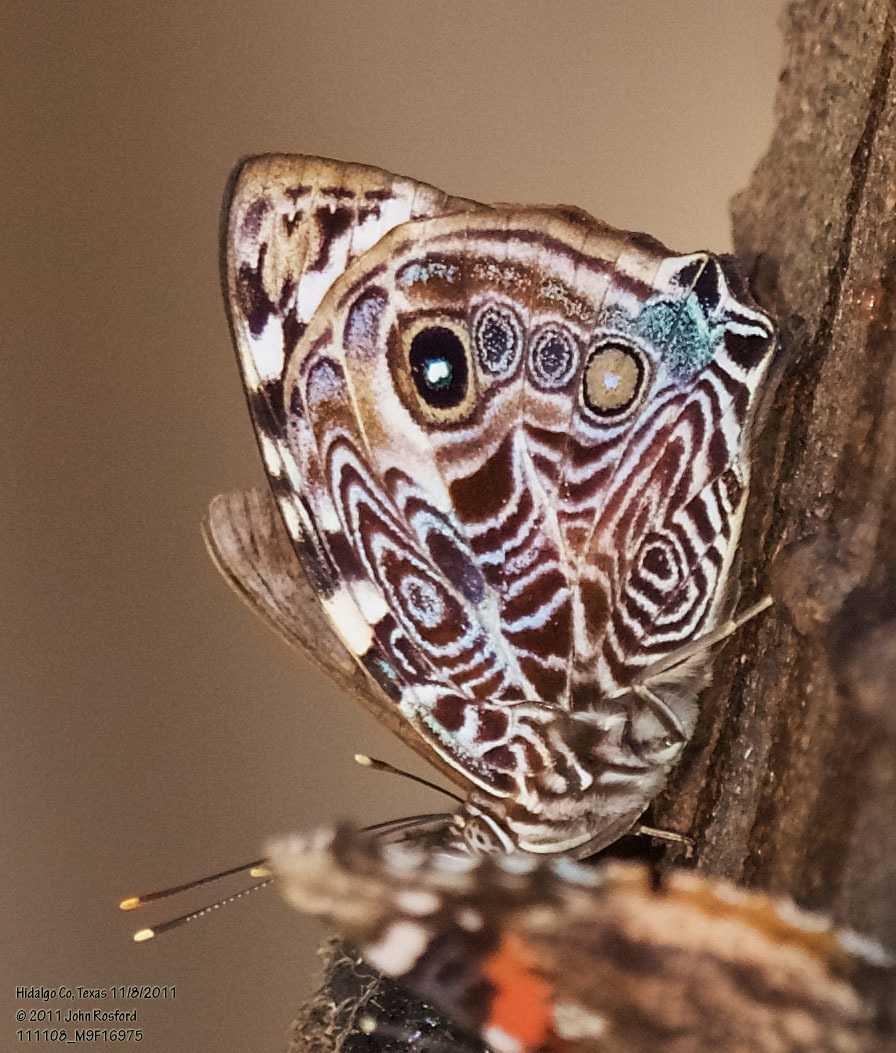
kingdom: Animalia
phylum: Arthropoda
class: Insecta
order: Lepidoptera
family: Nymphalidae
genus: Smyrna
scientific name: Smyrna blomfildia
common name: Blomfild's beauty
